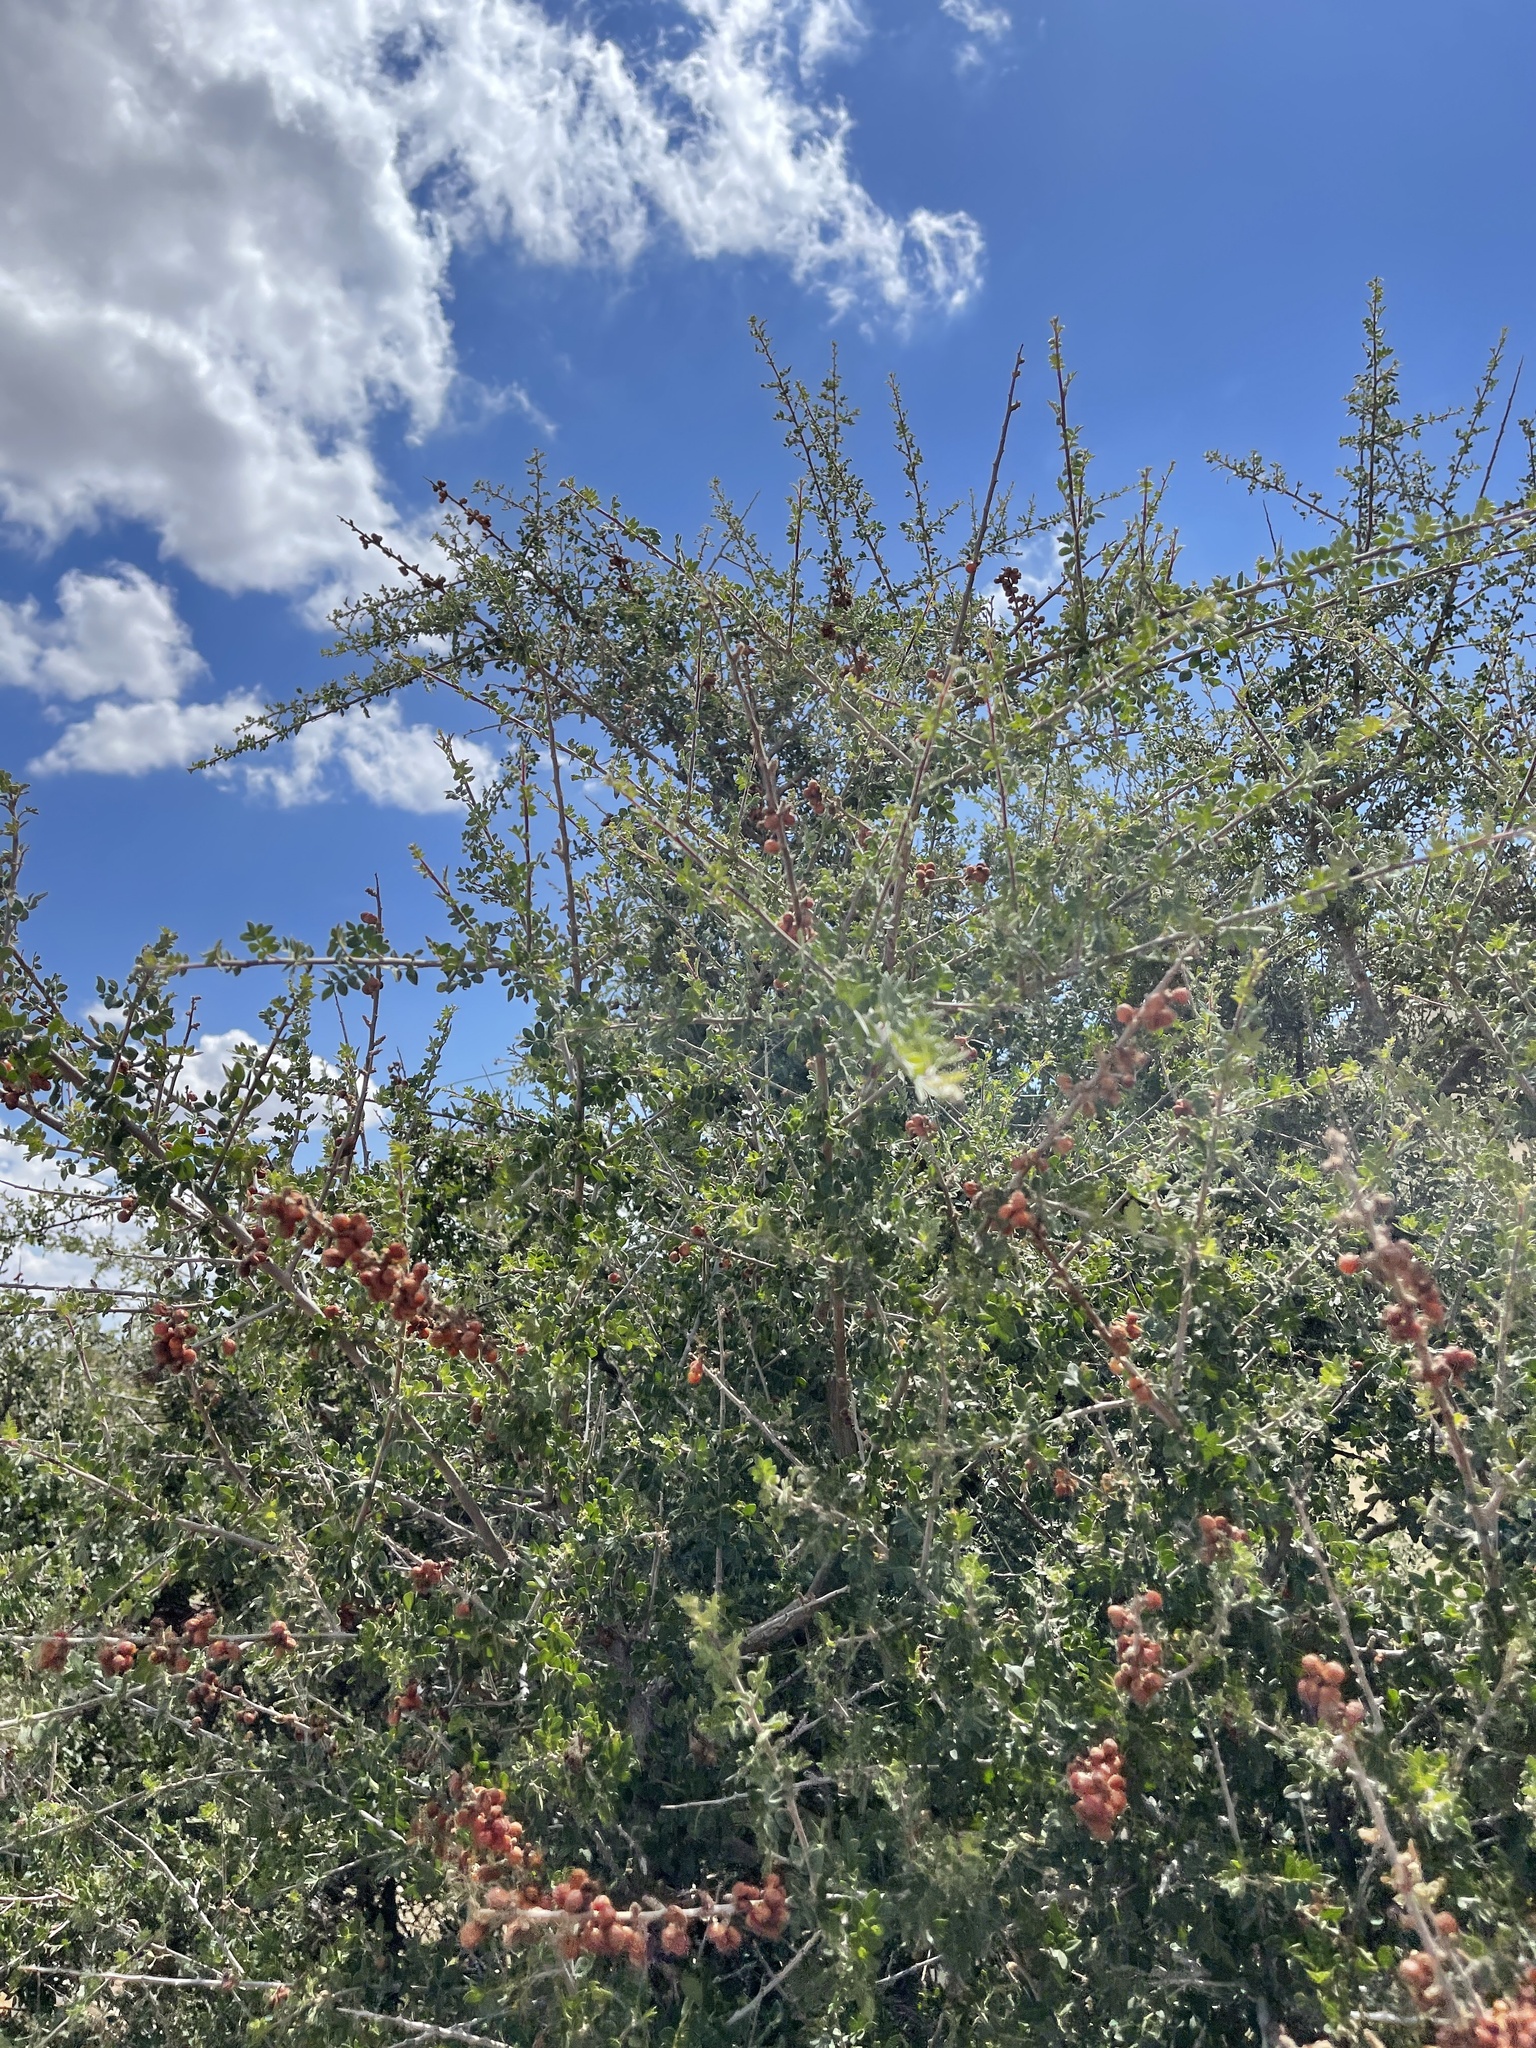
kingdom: Plantae
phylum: Tracheophyta
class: Magnoliopsida
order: Sapindales
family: Anacardiaceae
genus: Rhus
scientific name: Rhus microphylla
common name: Desert sumac
